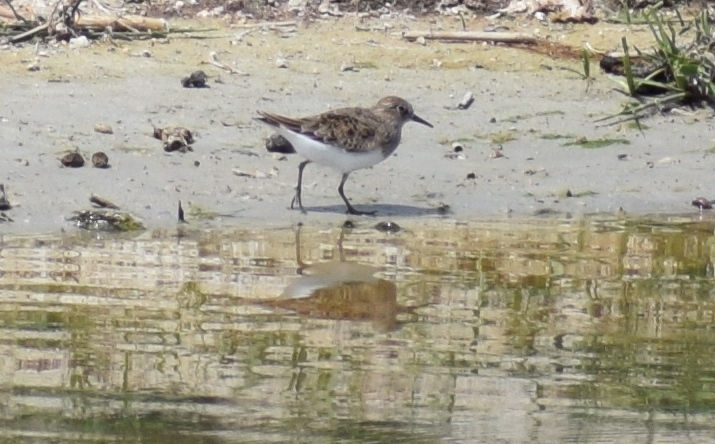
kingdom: Animalia
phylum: Chordata
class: Aves
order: Charadriiformes
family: Scolopacidae
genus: Calidris
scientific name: Calidris minuta
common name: Little stint
